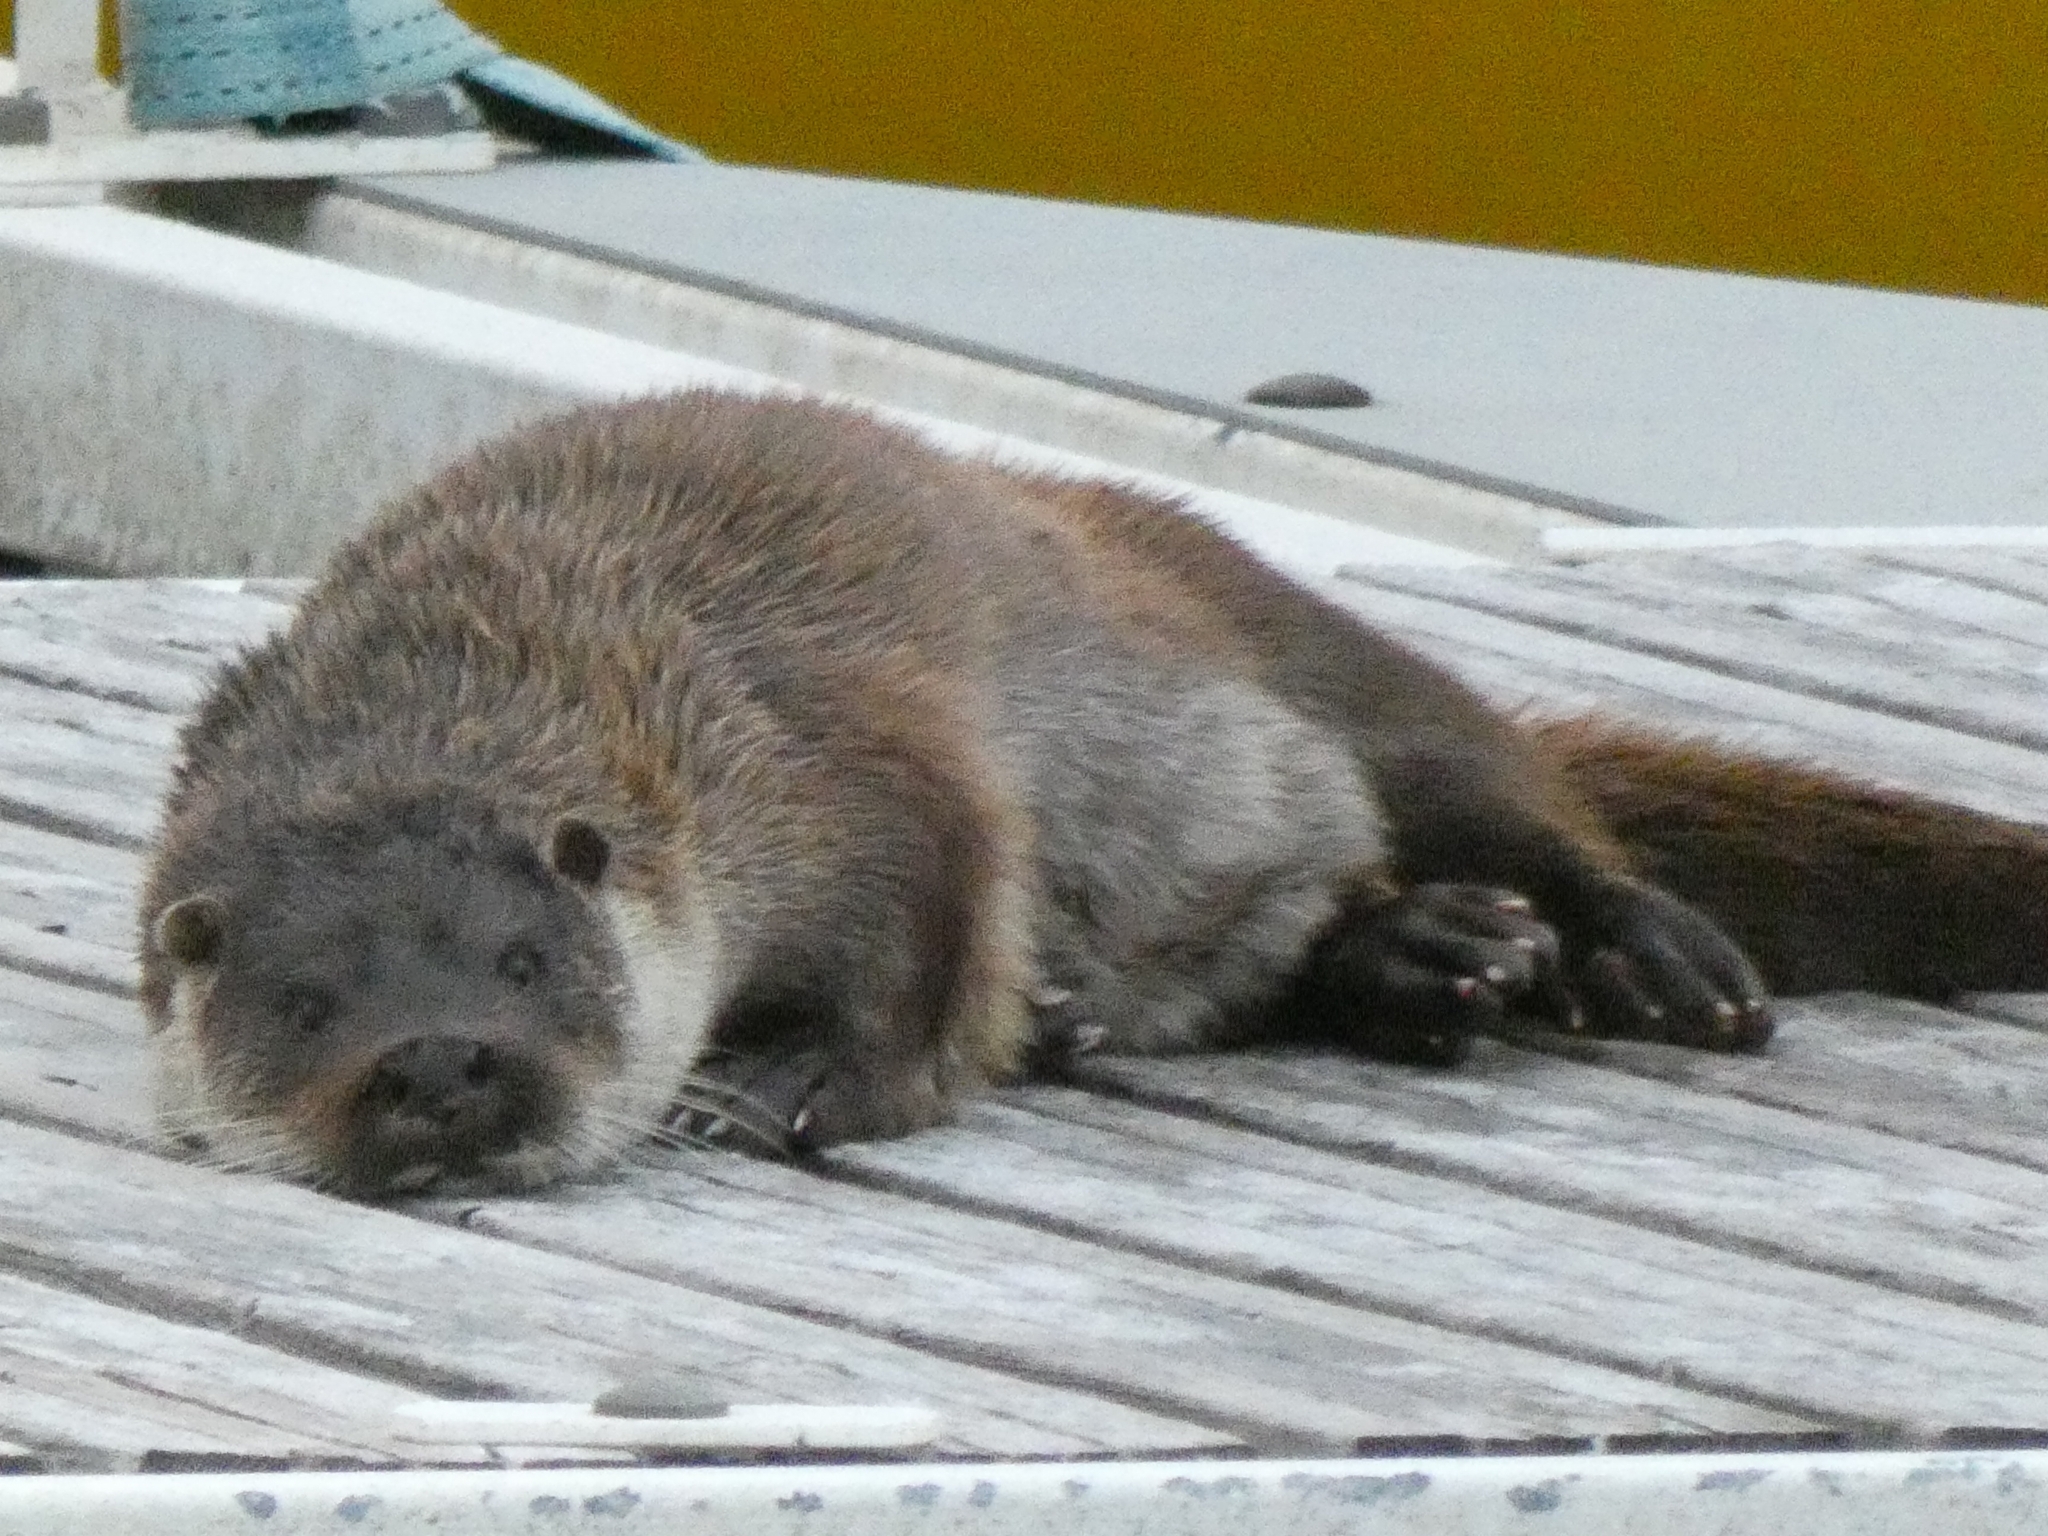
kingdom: Animalia
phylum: Chordata
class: Mammalia
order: Carnivora
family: Mustelidae
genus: Lutra
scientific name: Lutra lutra
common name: European otter
